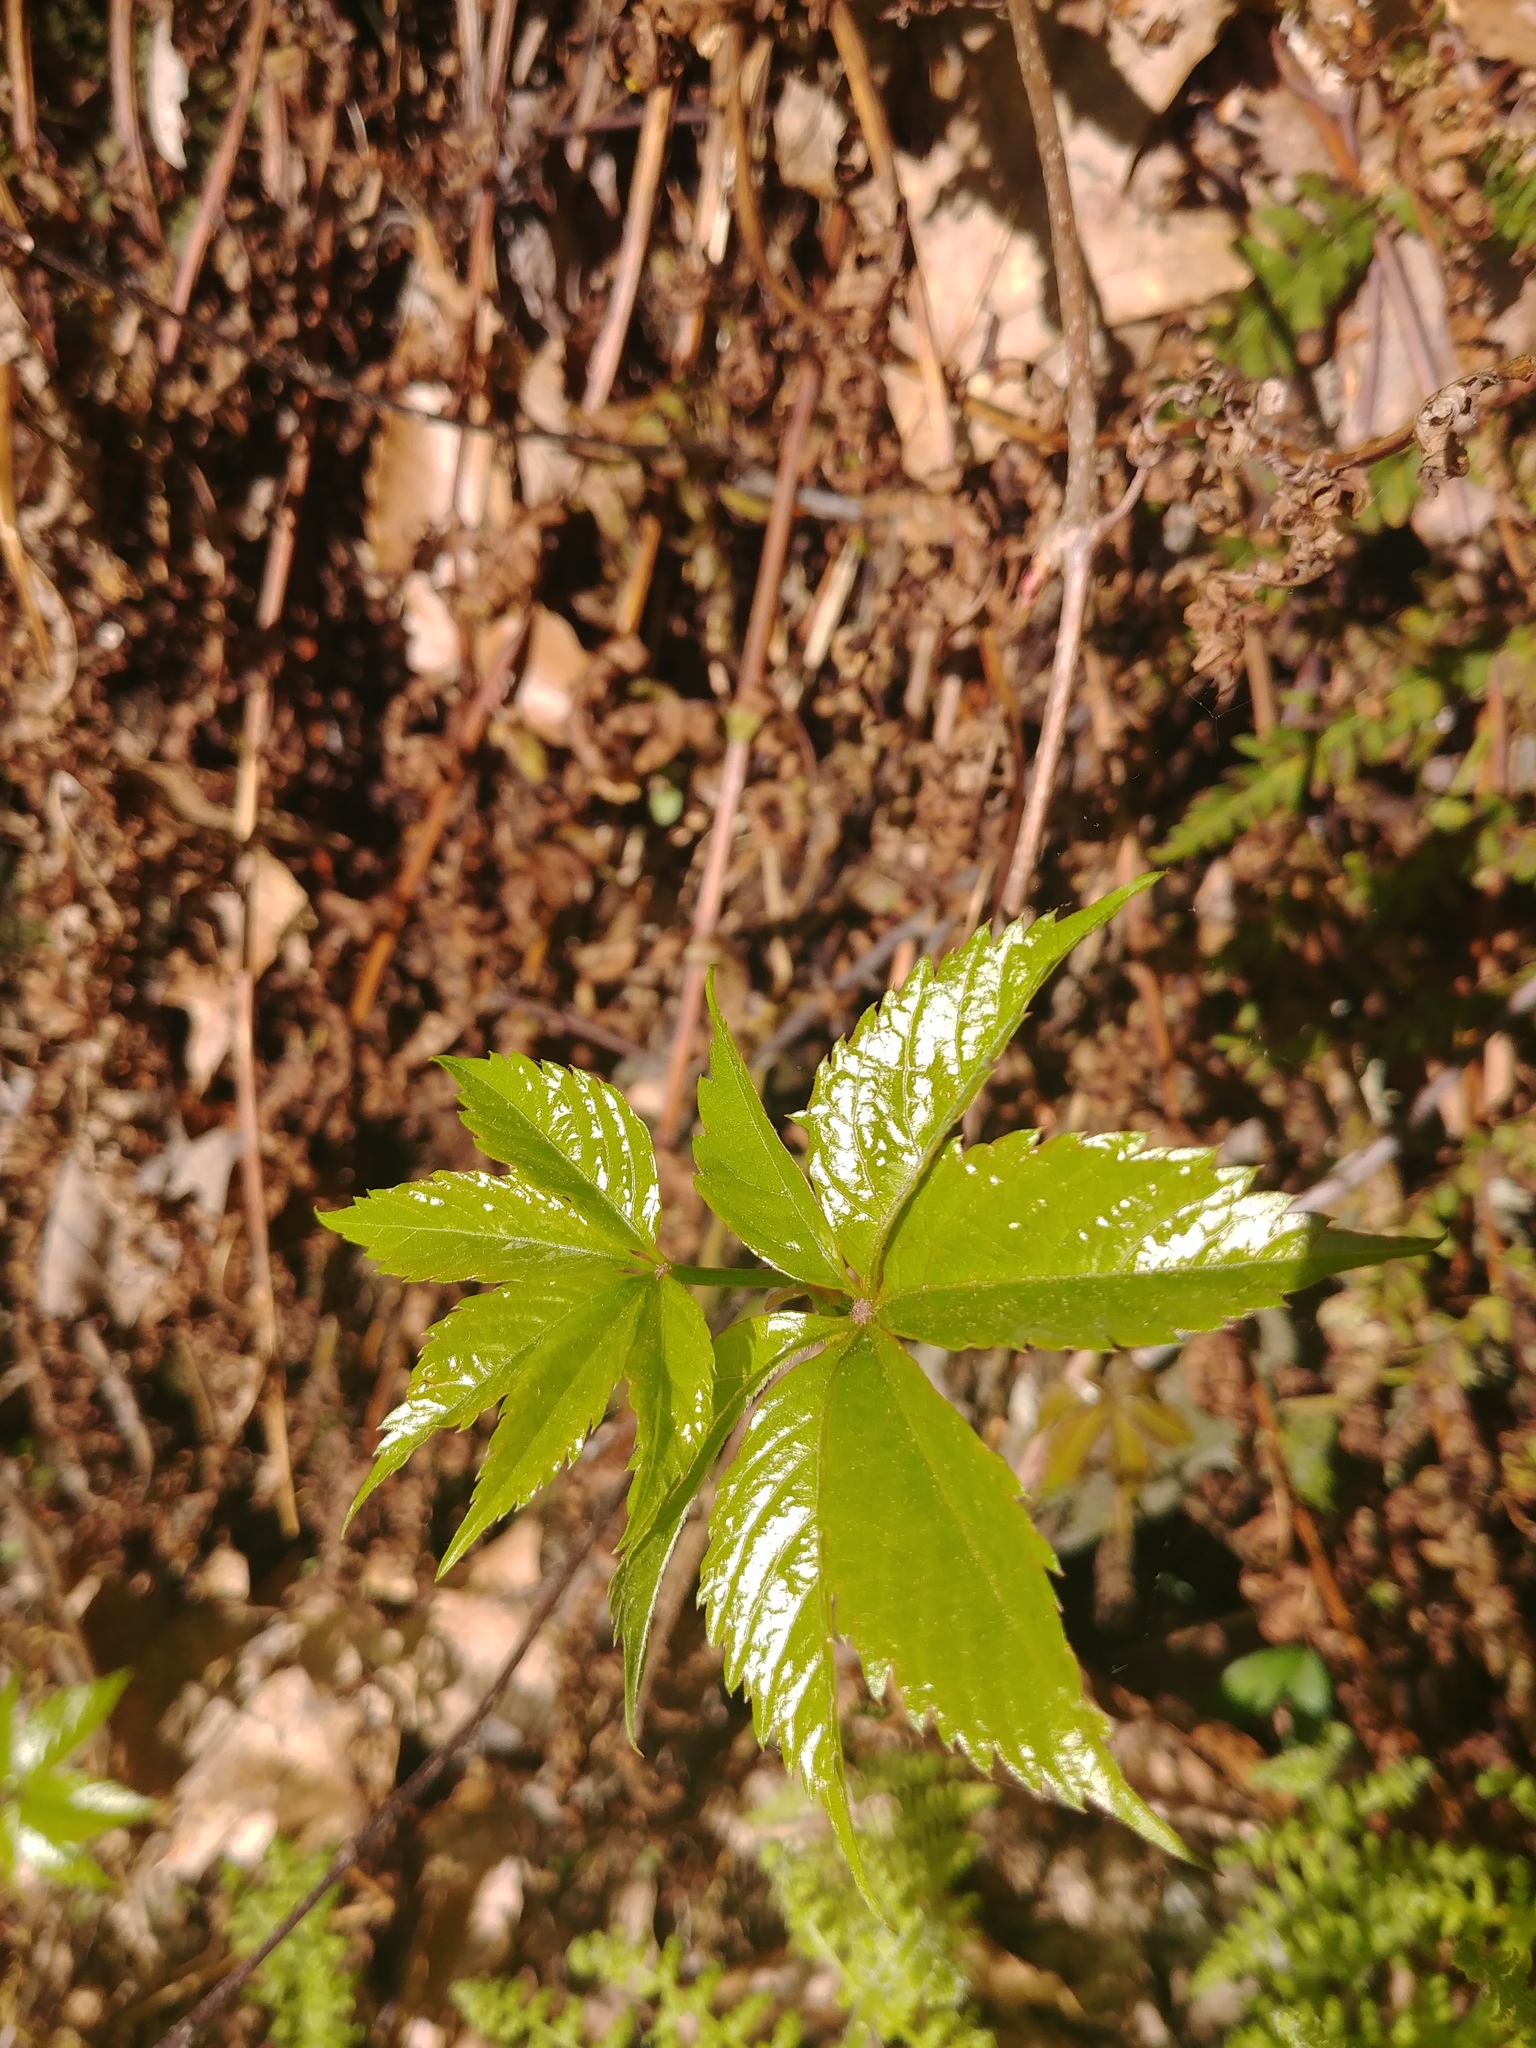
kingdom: Plantae
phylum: Tracheophyta
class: Magnoliopsida
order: Vitales
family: Vitaceae
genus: Parthenocissus
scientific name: Parthenocissus quinquefolia
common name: Virginia-creeper
